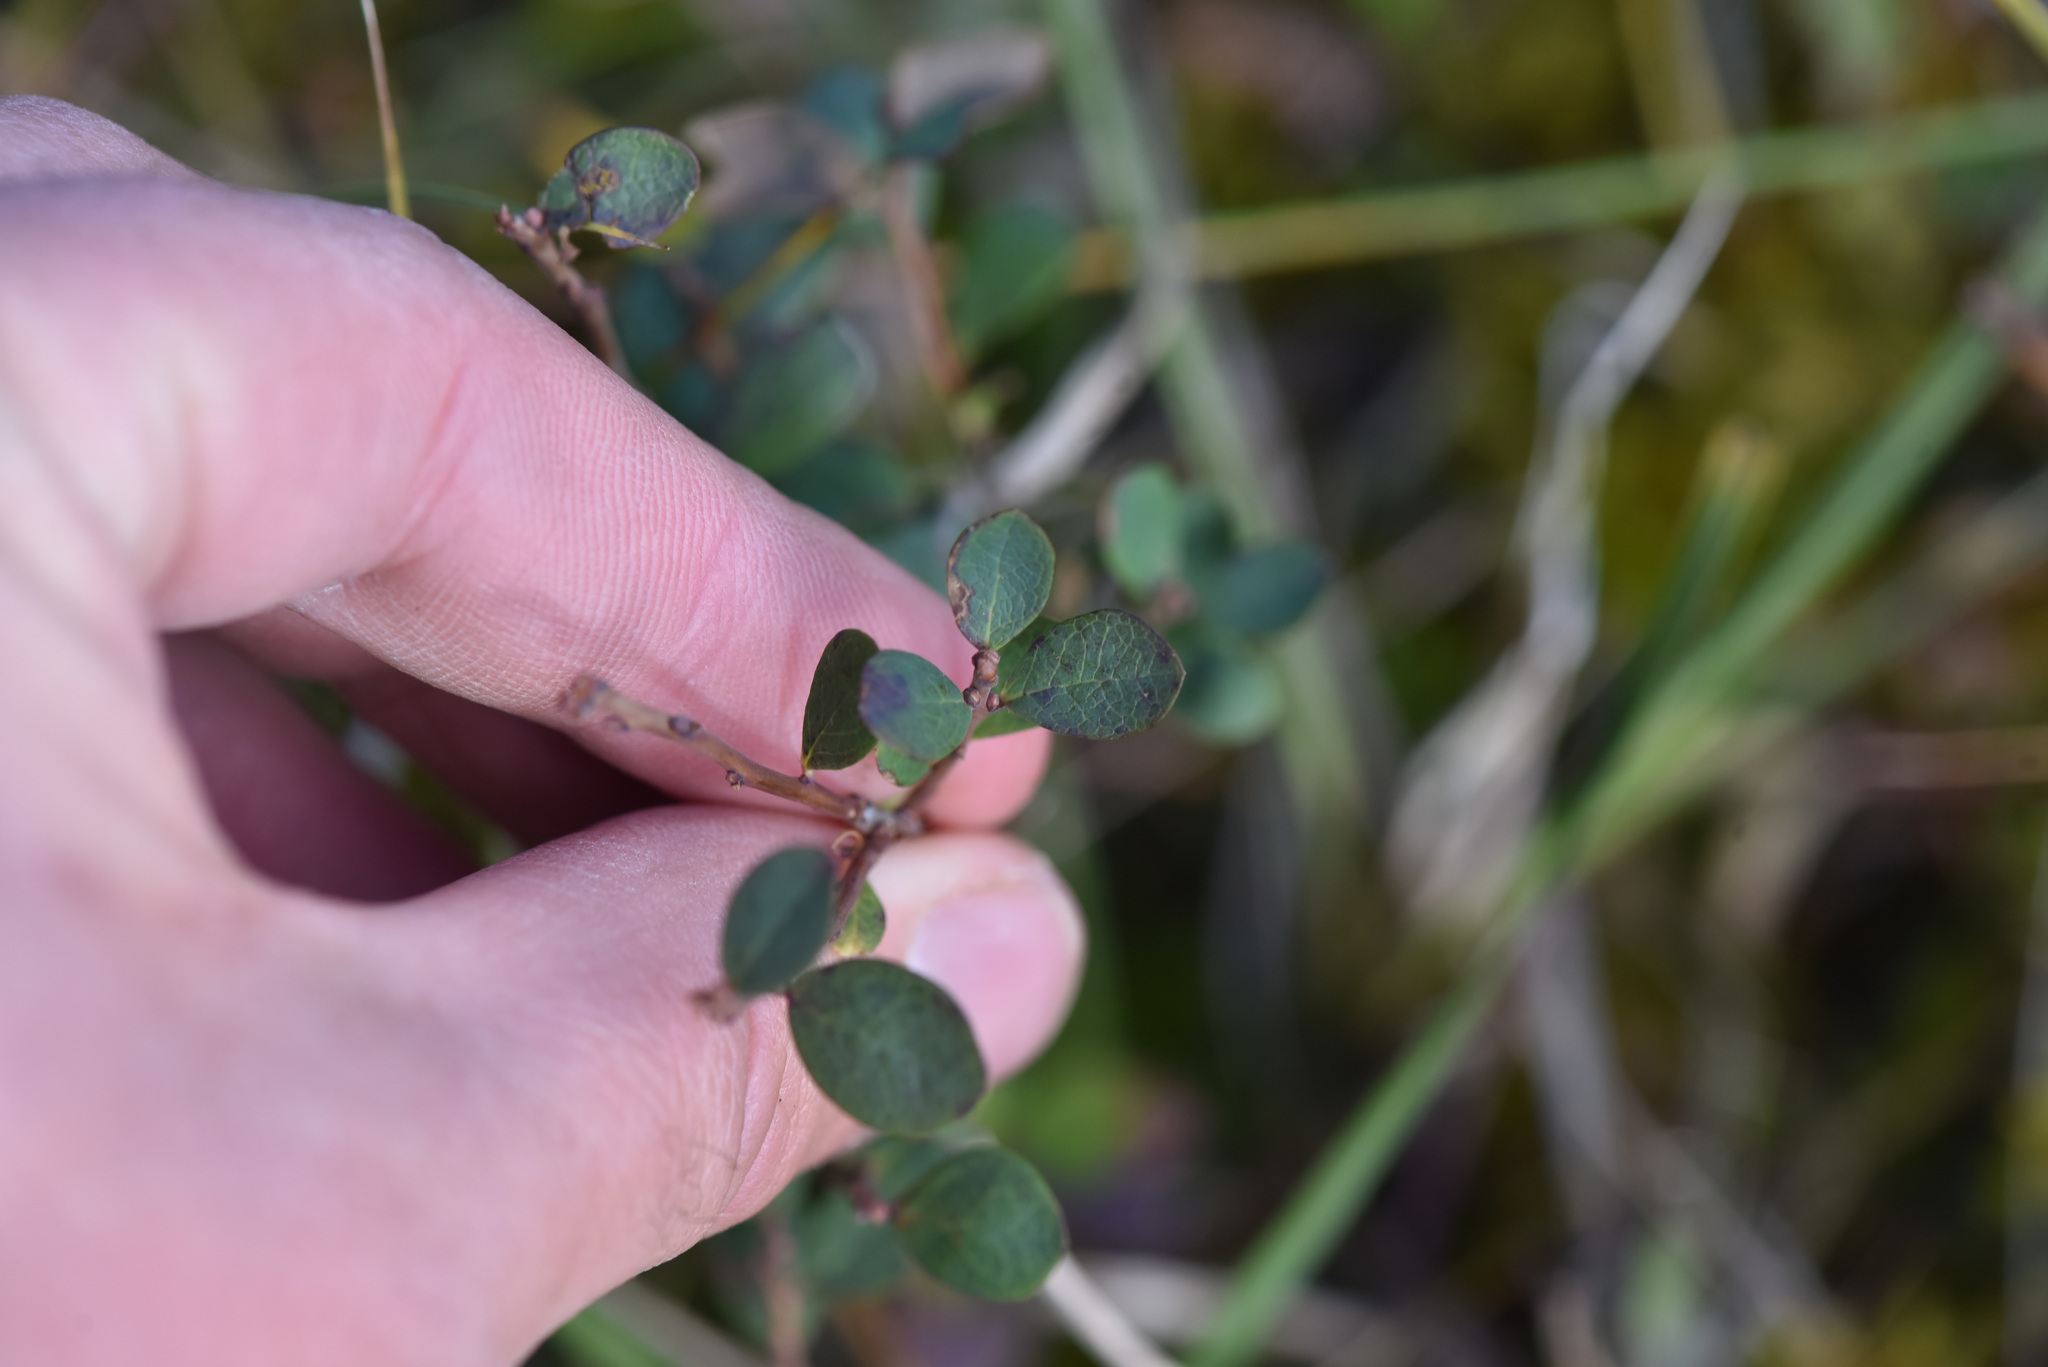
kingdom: Plantae
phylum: Tracheophyta
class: Magnoliopsida
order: Ericales
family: Ericaceae
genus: Vaccinium
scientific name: Vaccinium uliginosum
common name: Bog bilberry
